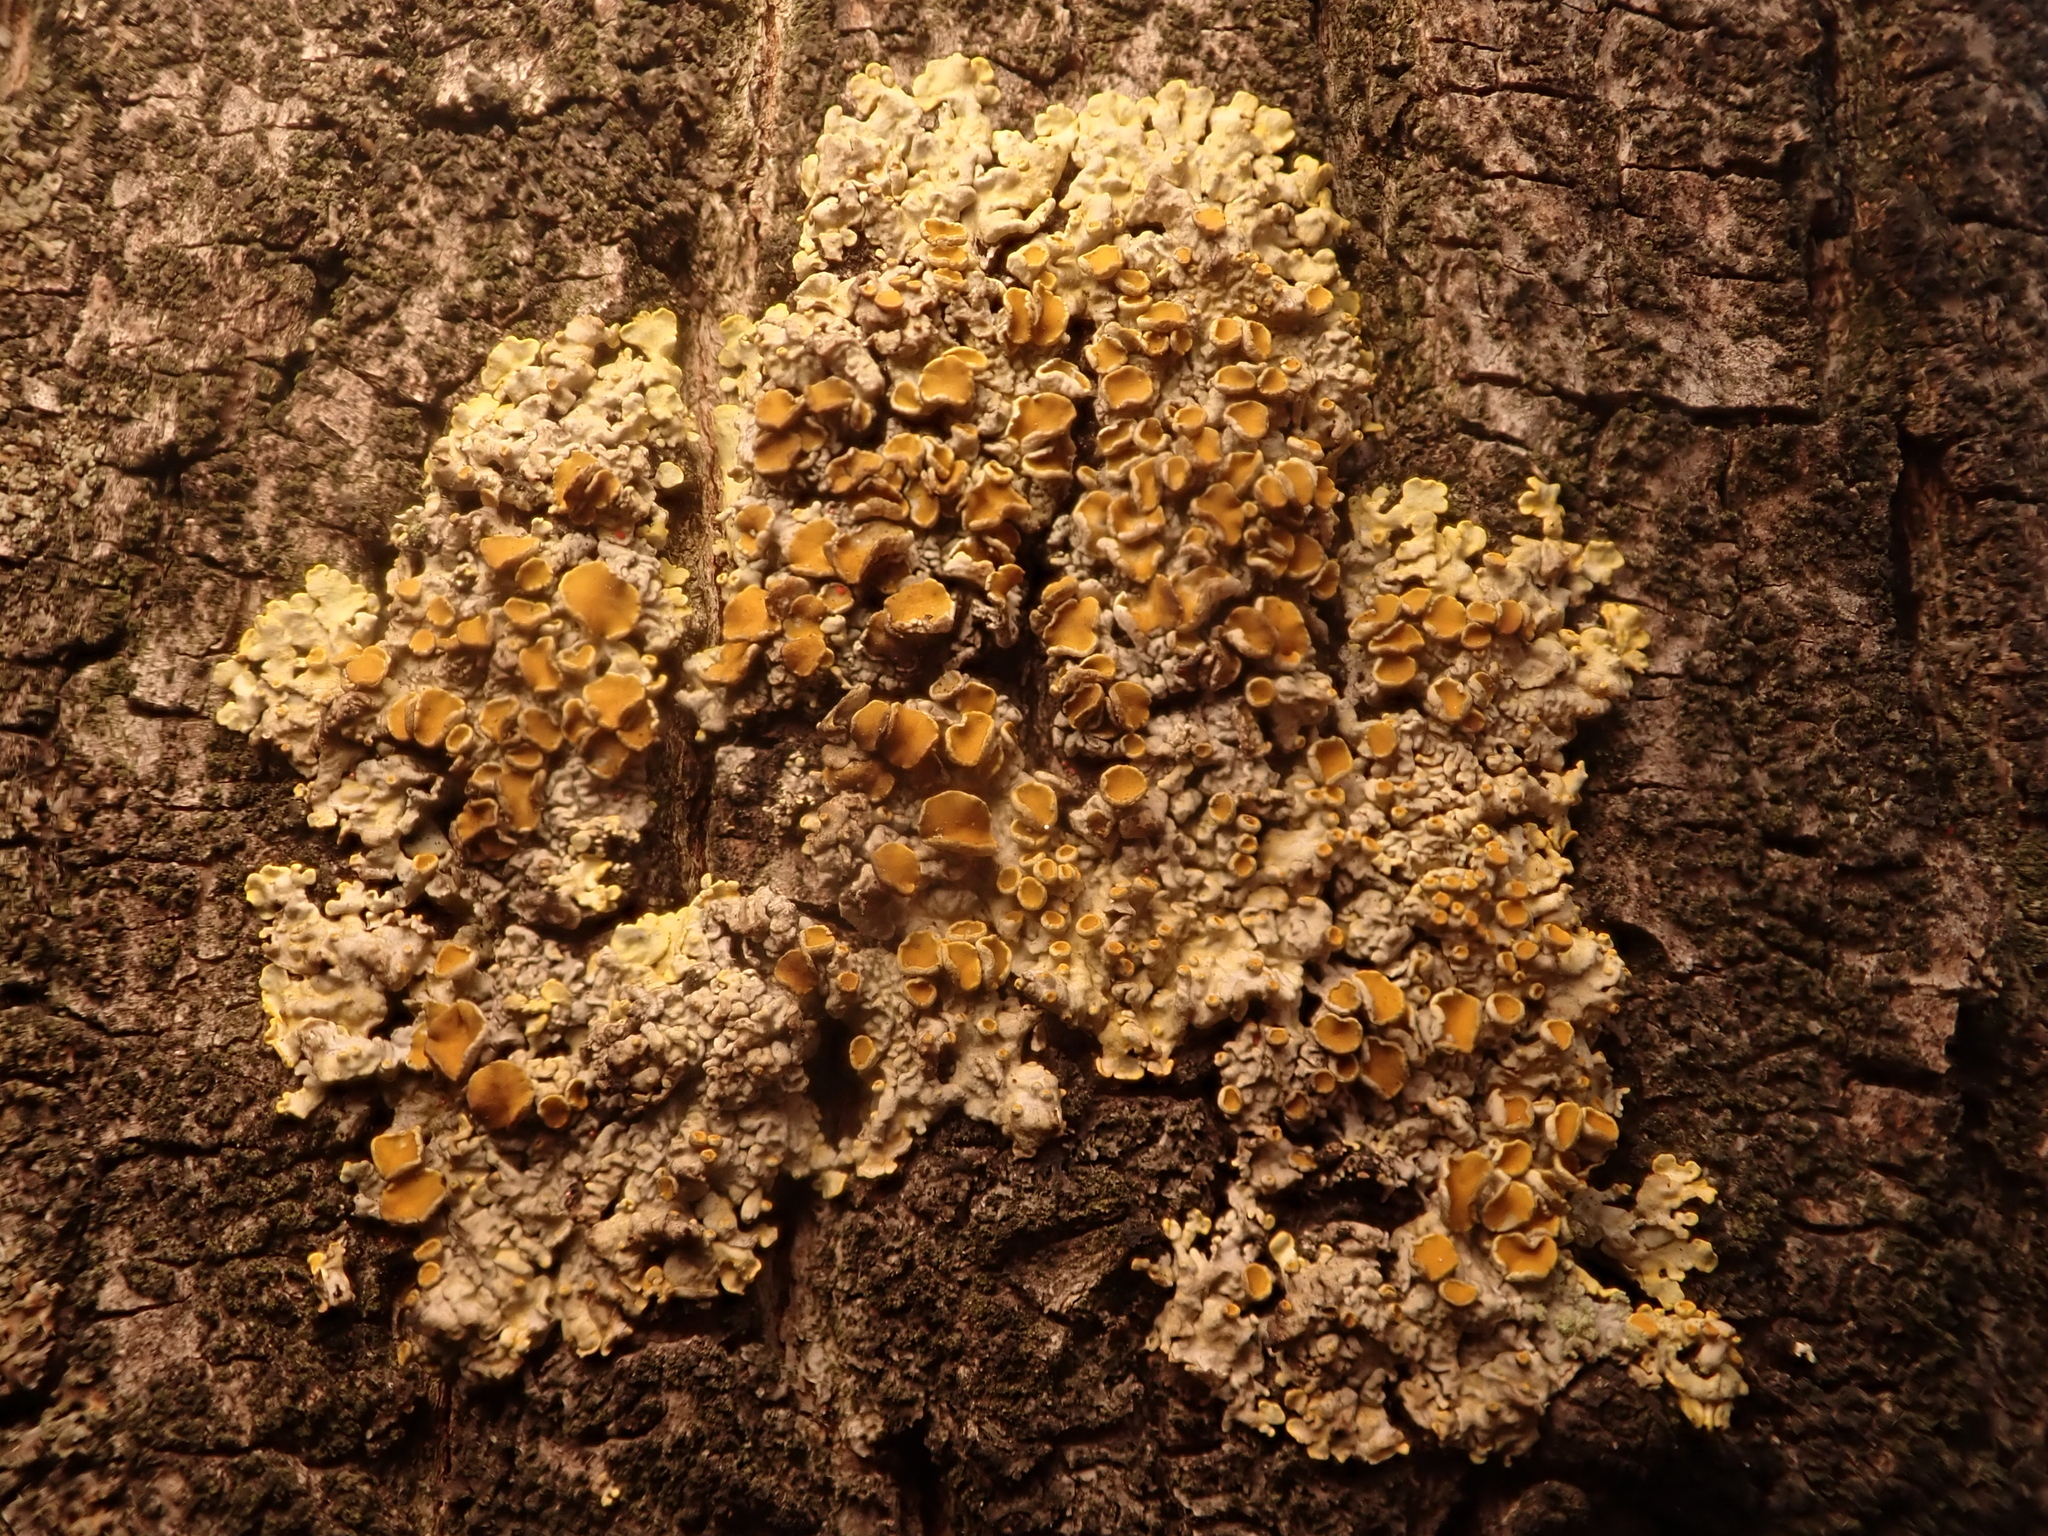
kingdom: Fungi
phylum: Ascomycota
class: Lecanoromycetes
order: Teloschistales
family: Teloschistaceae
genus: Xanthoria
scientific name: Xanthoria parietina
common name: Common orange lichen
